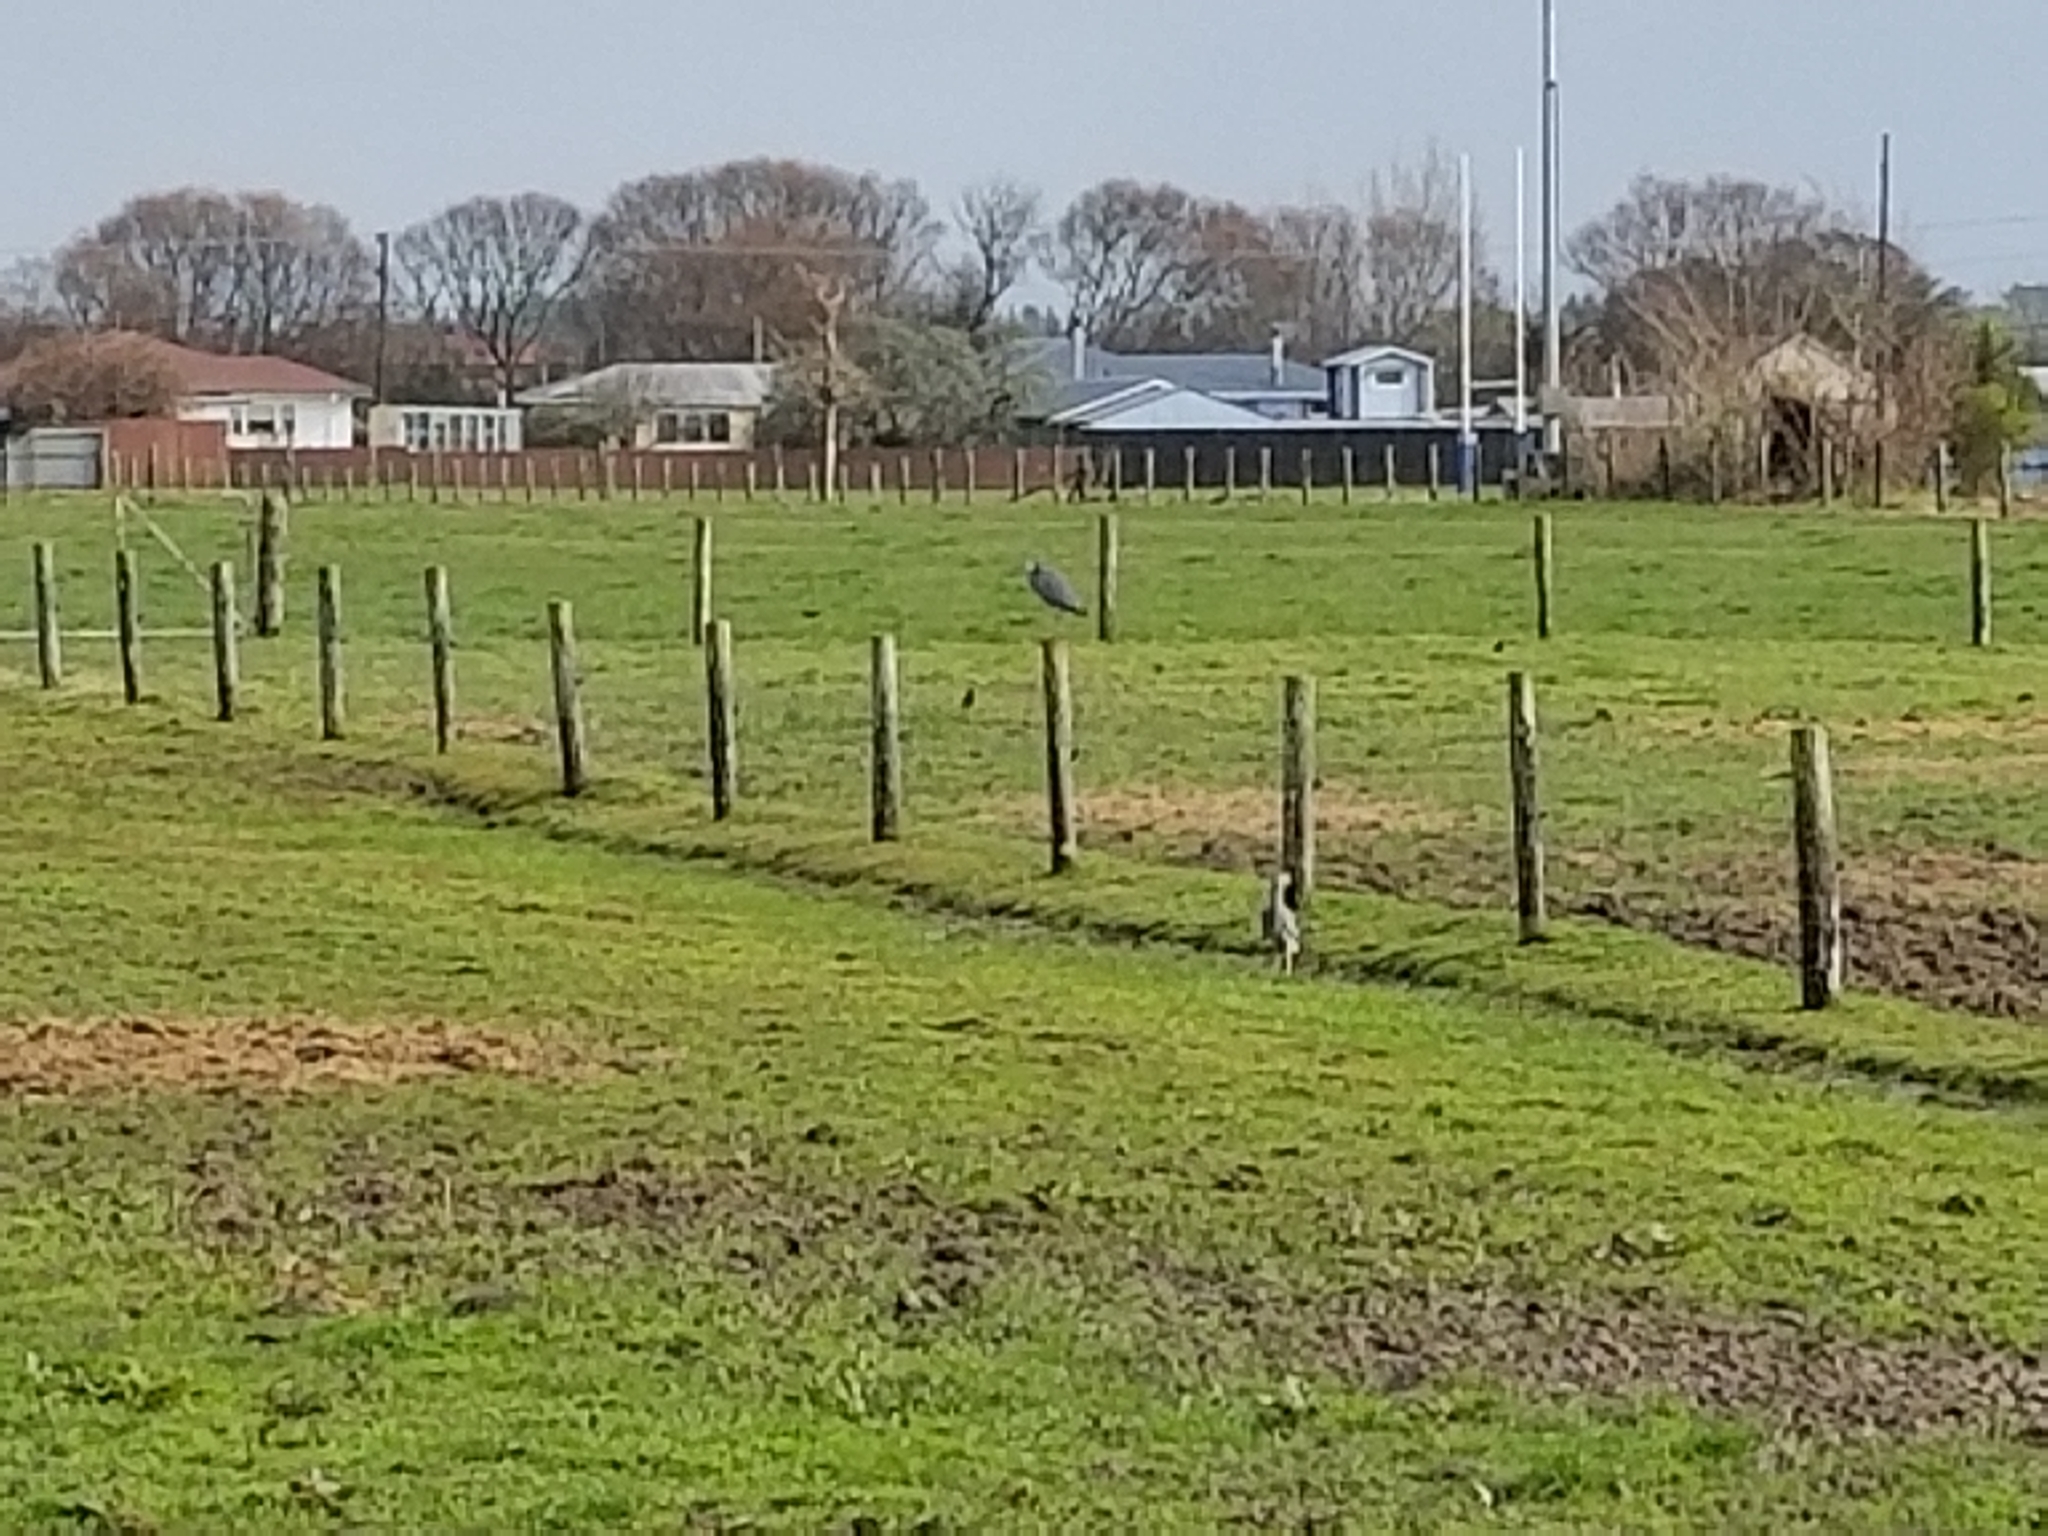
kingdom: Animalia
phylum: Chordata
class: Aves
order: Pelecaniformes
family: Ardeidae
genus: Egretta
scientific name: Egretta novaehollandiae
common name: White-faced heron
